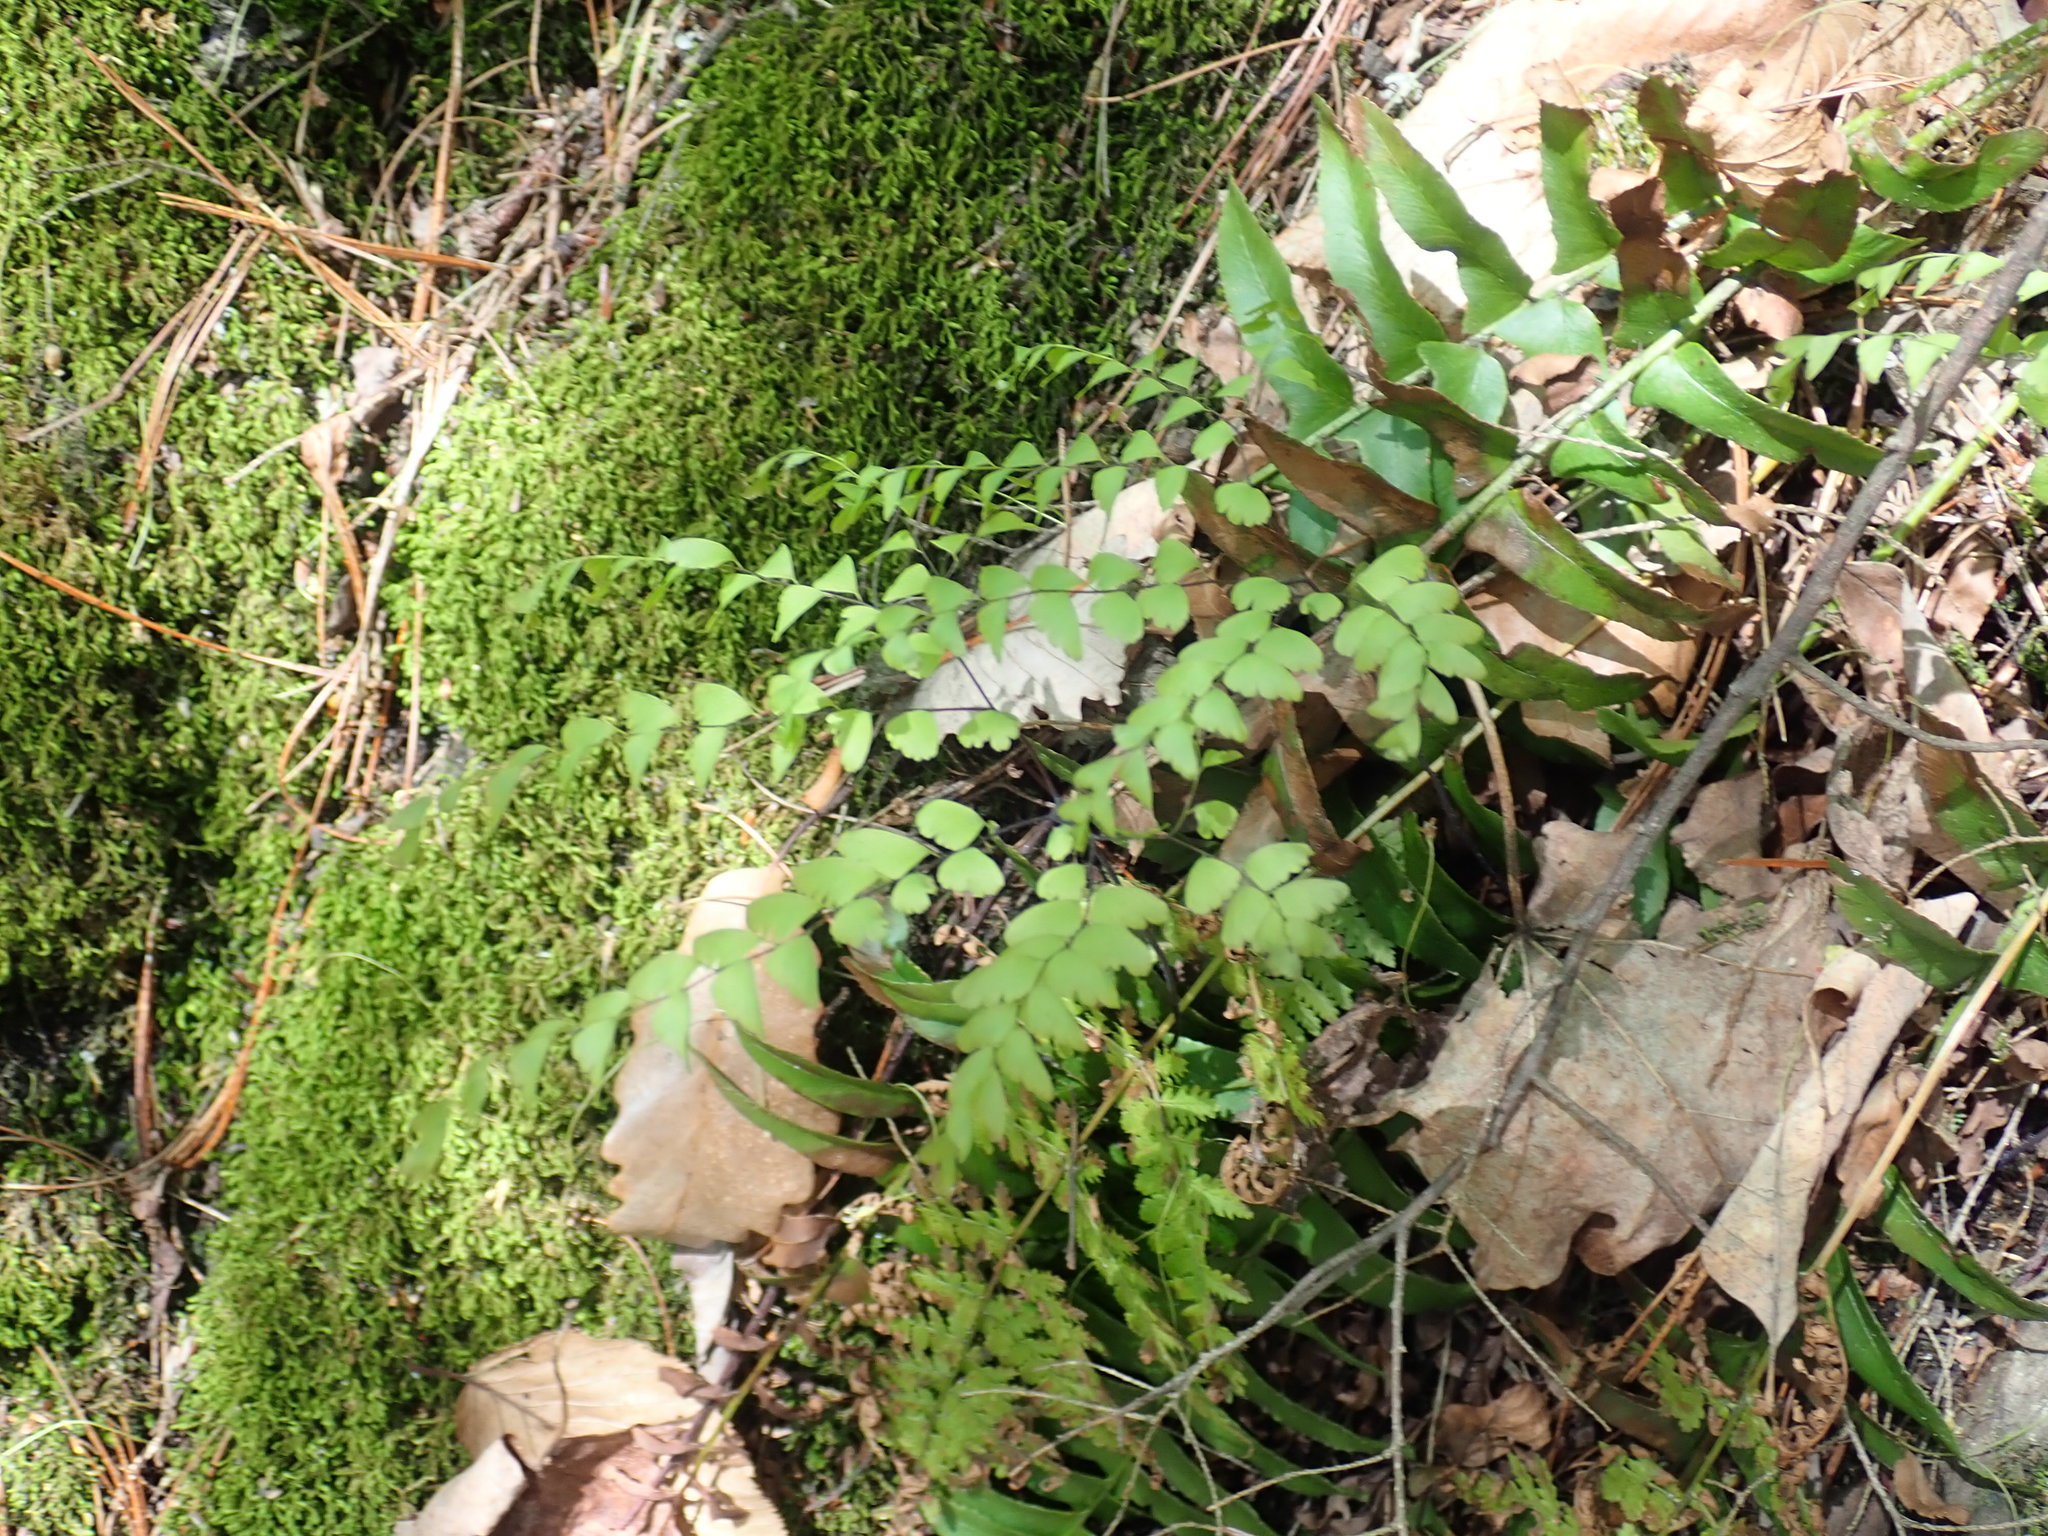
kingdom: Plantae
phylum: Tracheophyta
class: Polypodiopsida
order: Polypodiales
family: Pteridaceae
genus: Adiantum
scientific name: Adiantum pedatum
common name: Five-finger fern
